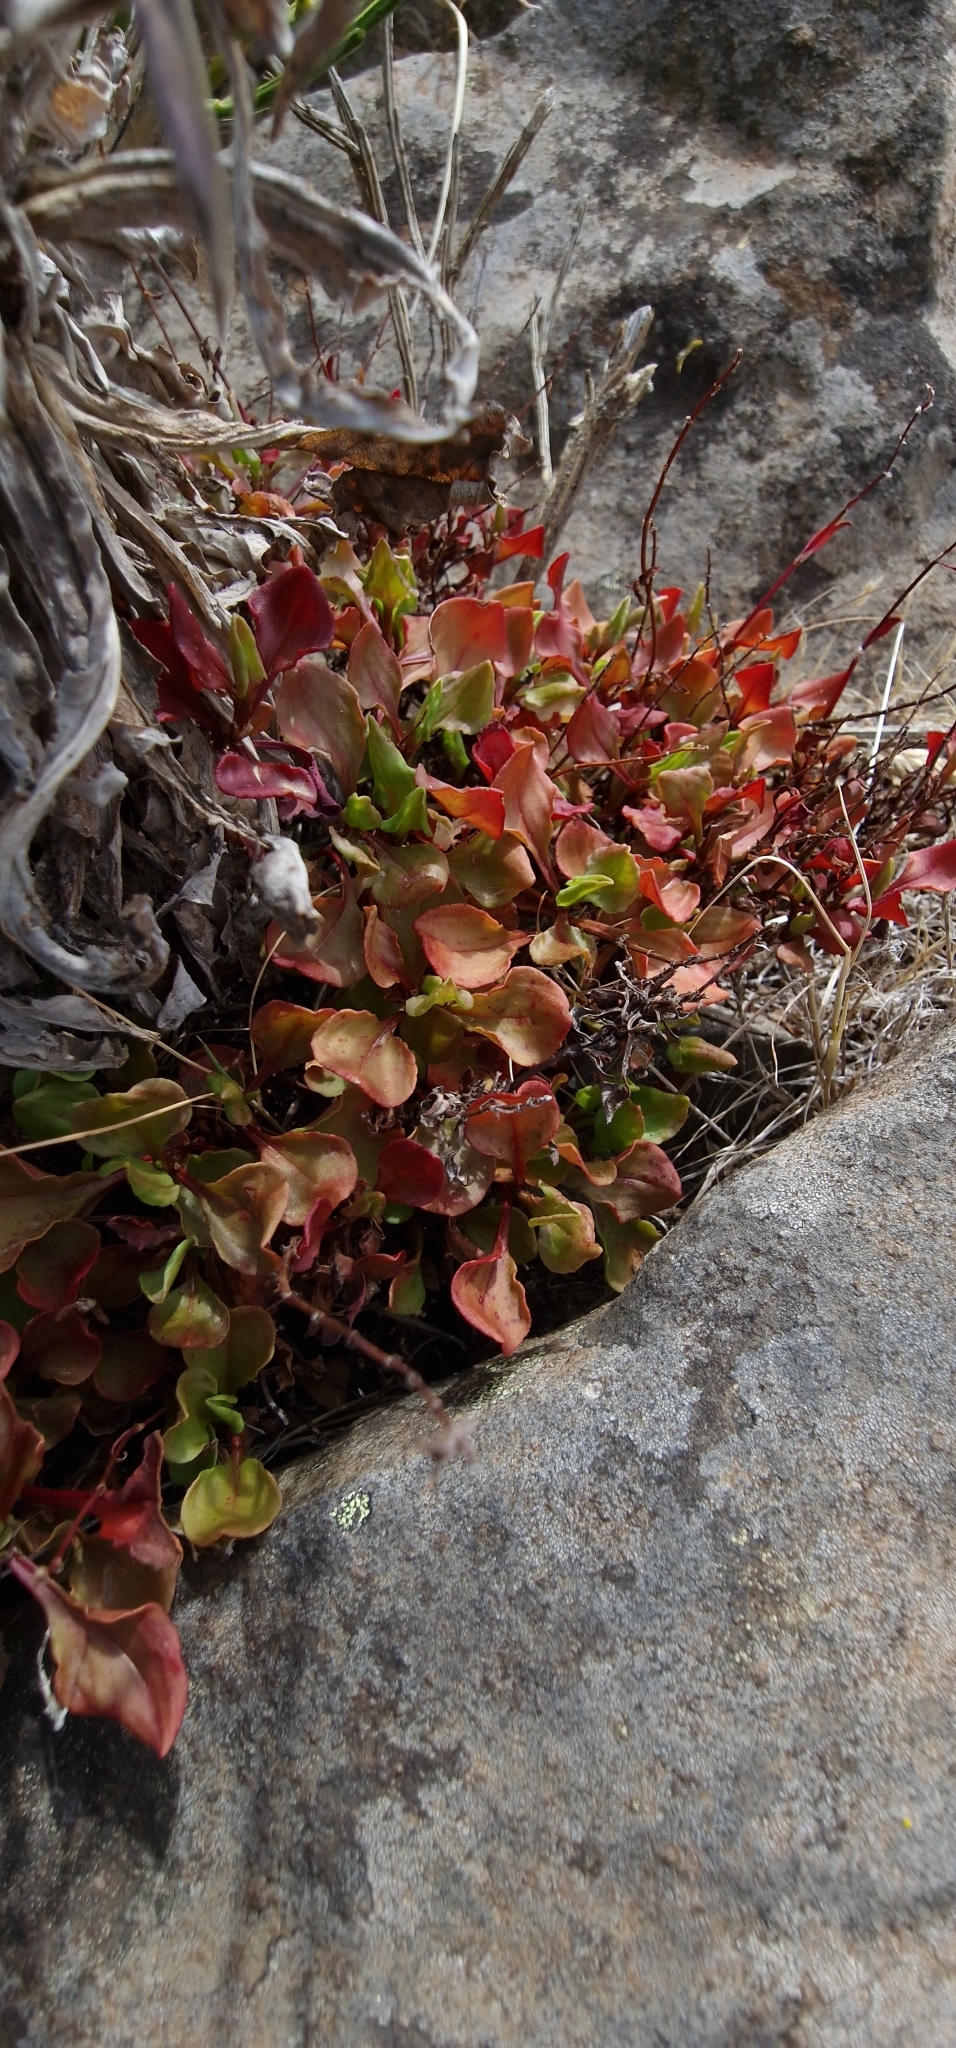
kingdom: Plantae
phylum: Tracheophyta
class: Magnoliopsida
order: Caryophyllales
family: Polygonaceae
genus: Rumex
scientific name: Rumex bucephalophorus
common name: Red dock
